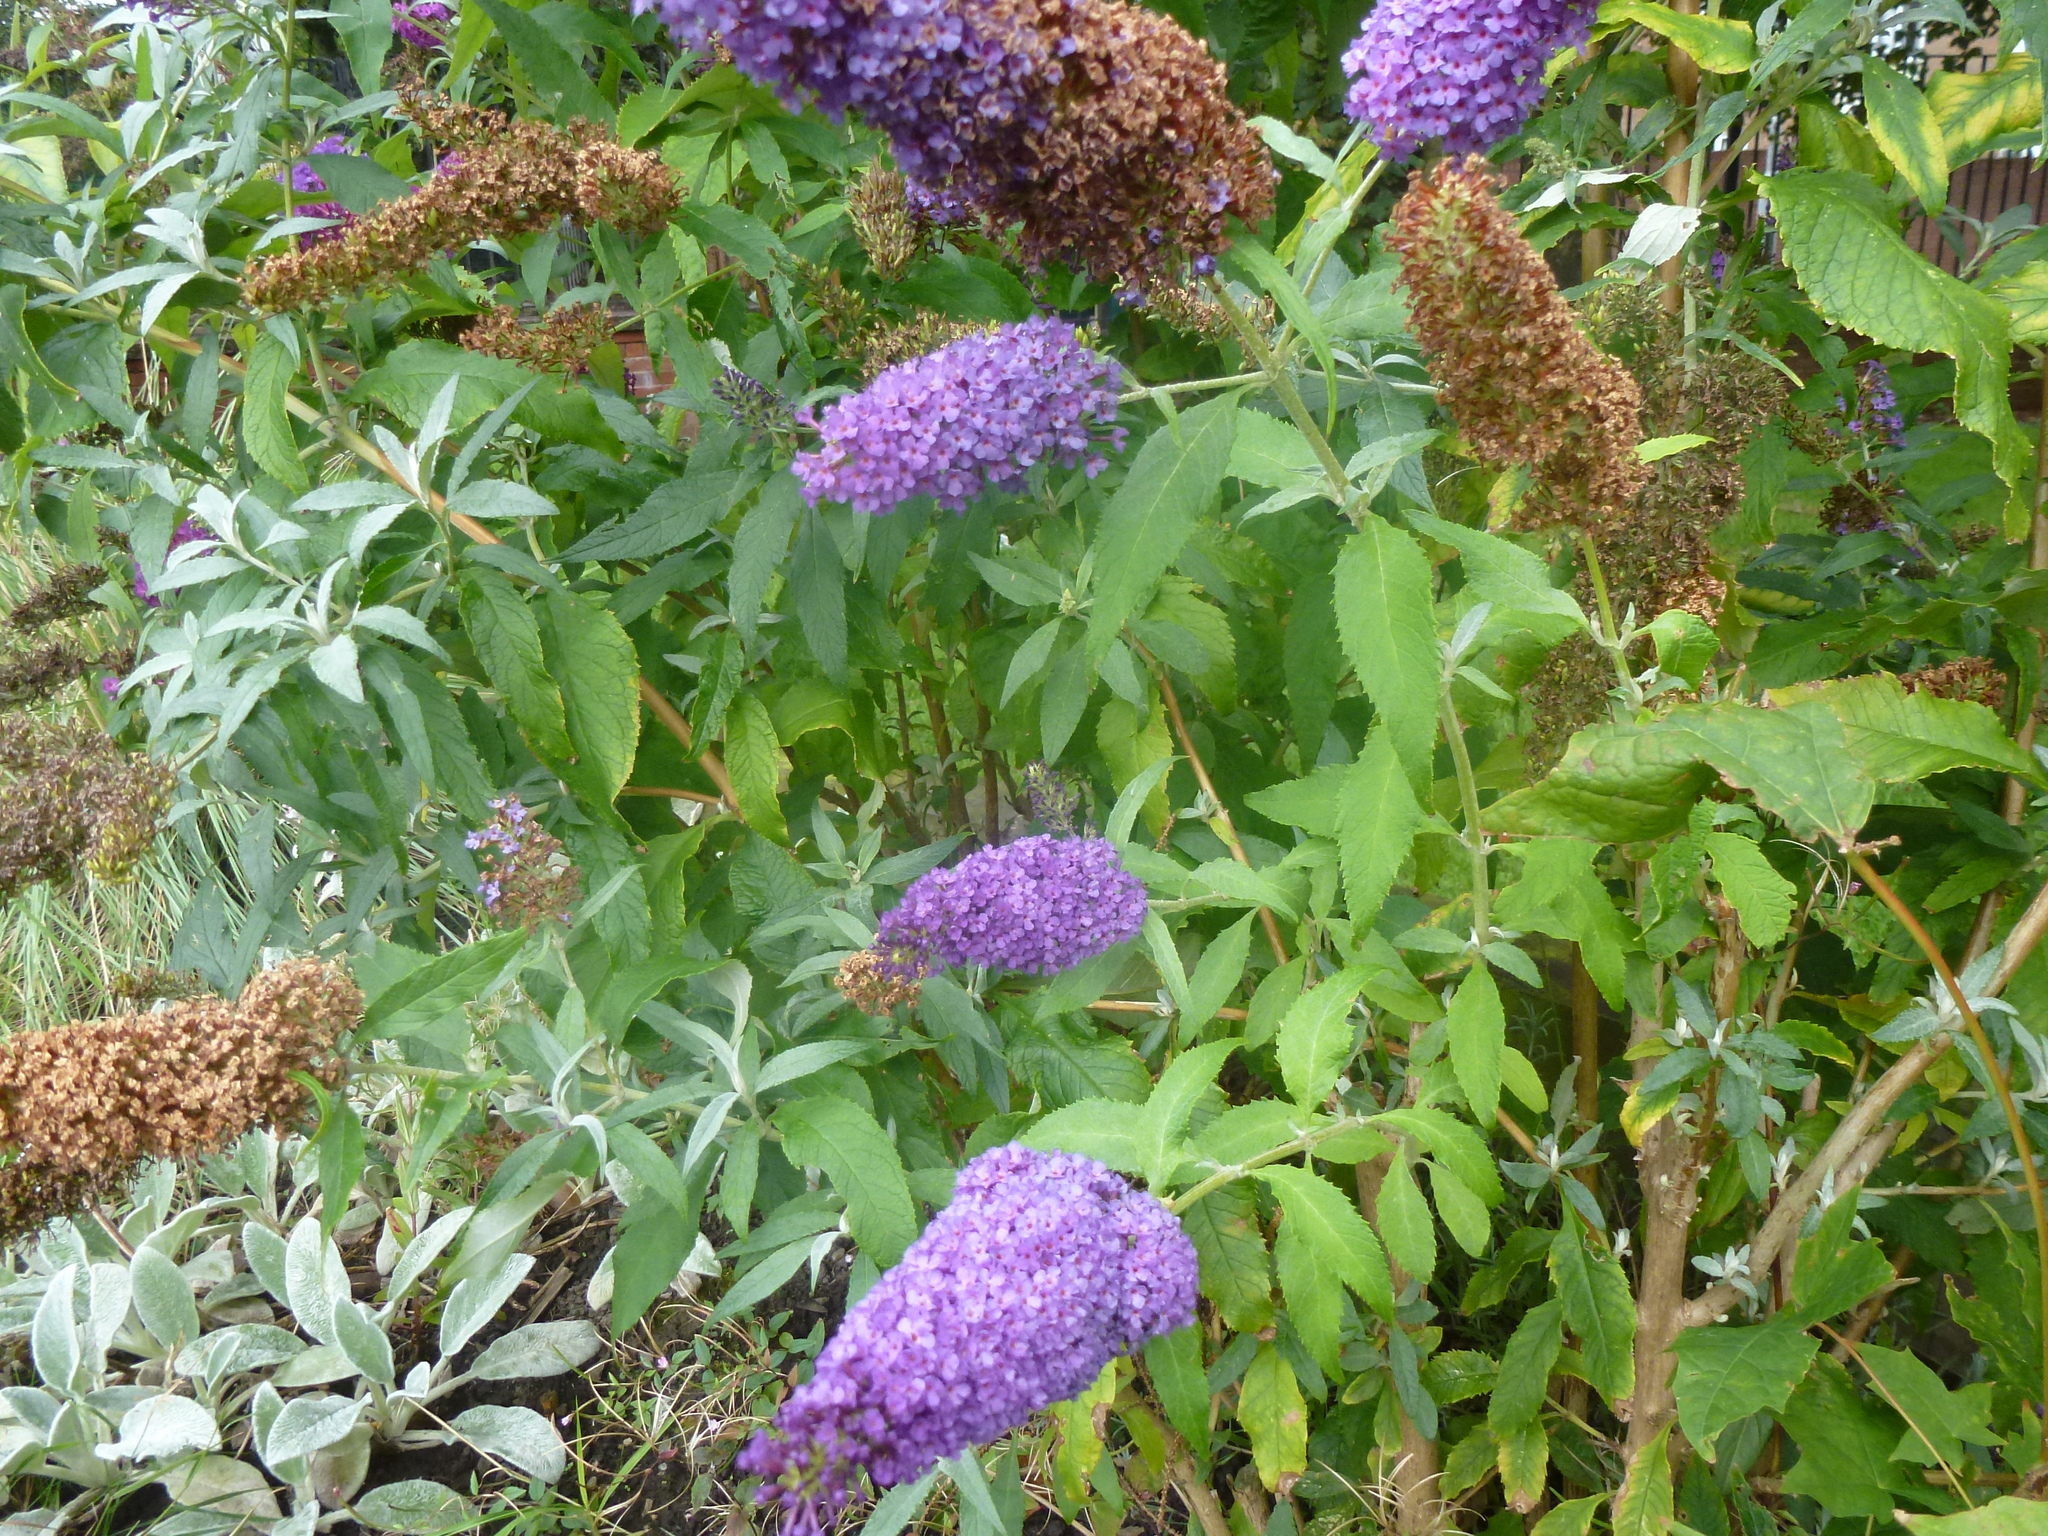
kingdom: Plantae
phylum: Tracheophyta
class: Magnoliopsida
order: Lamiales
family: Scrophulariaceae
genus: Buddleja
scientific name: Buddleja davidii
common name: Butterfly-bush
